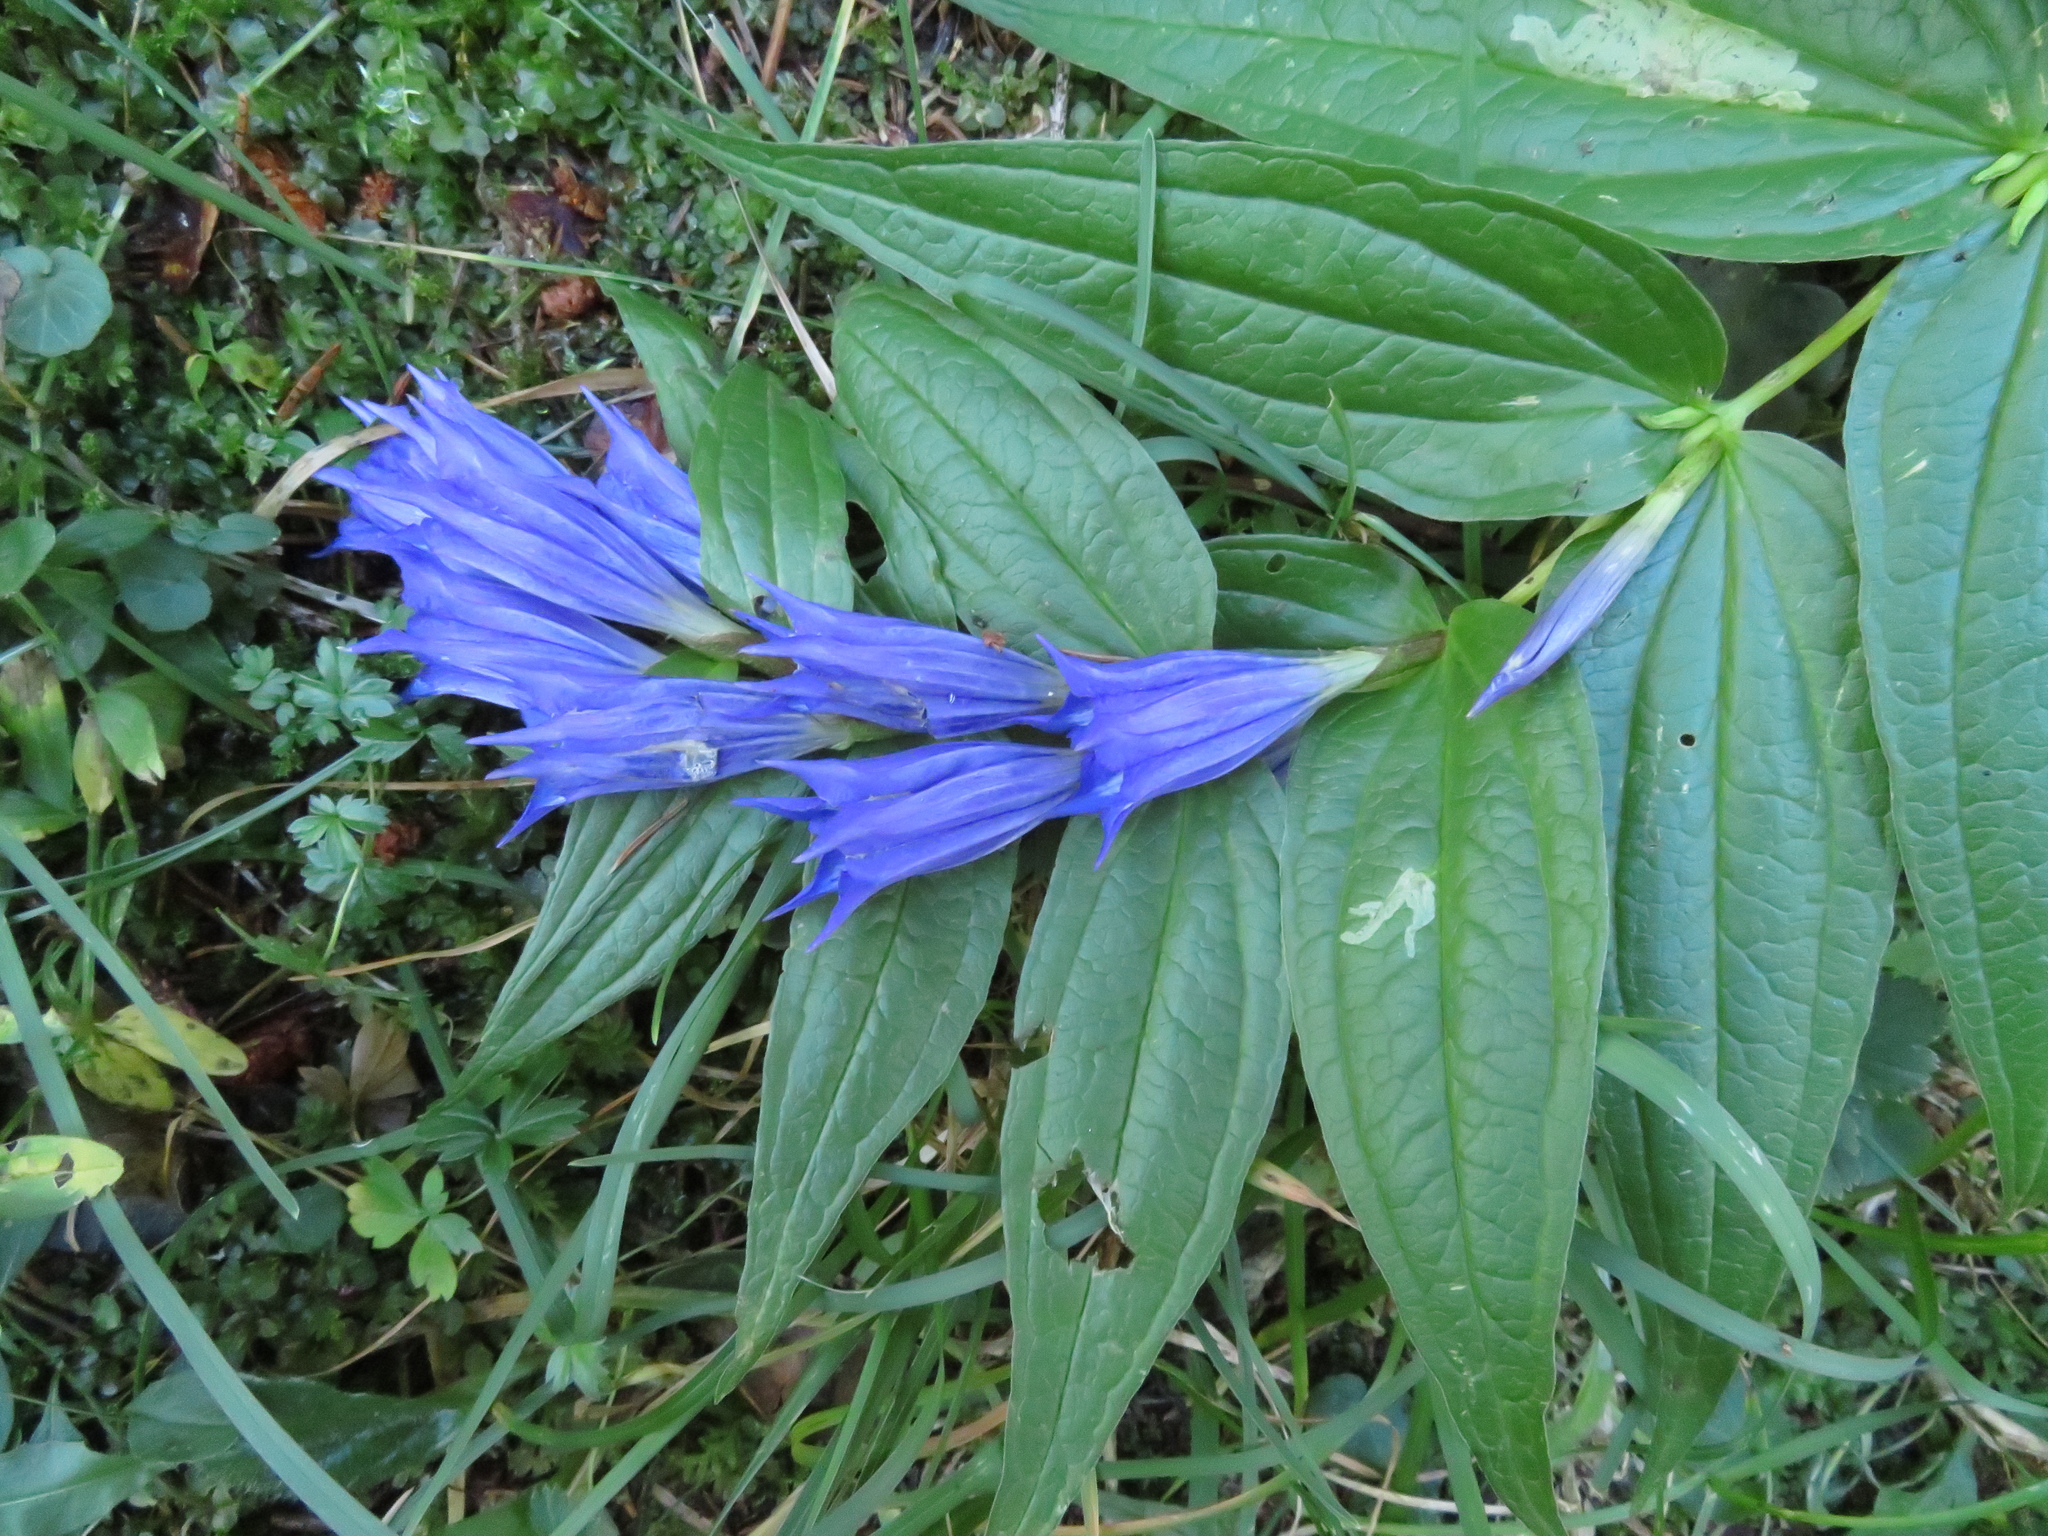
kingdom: Plantae
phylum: Tracheophyta
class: Magnoliopsida
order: Gentianales
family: Gentianaceae
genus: Gentiana
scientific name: Gentiana asclepiadea
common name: Willow gentian
